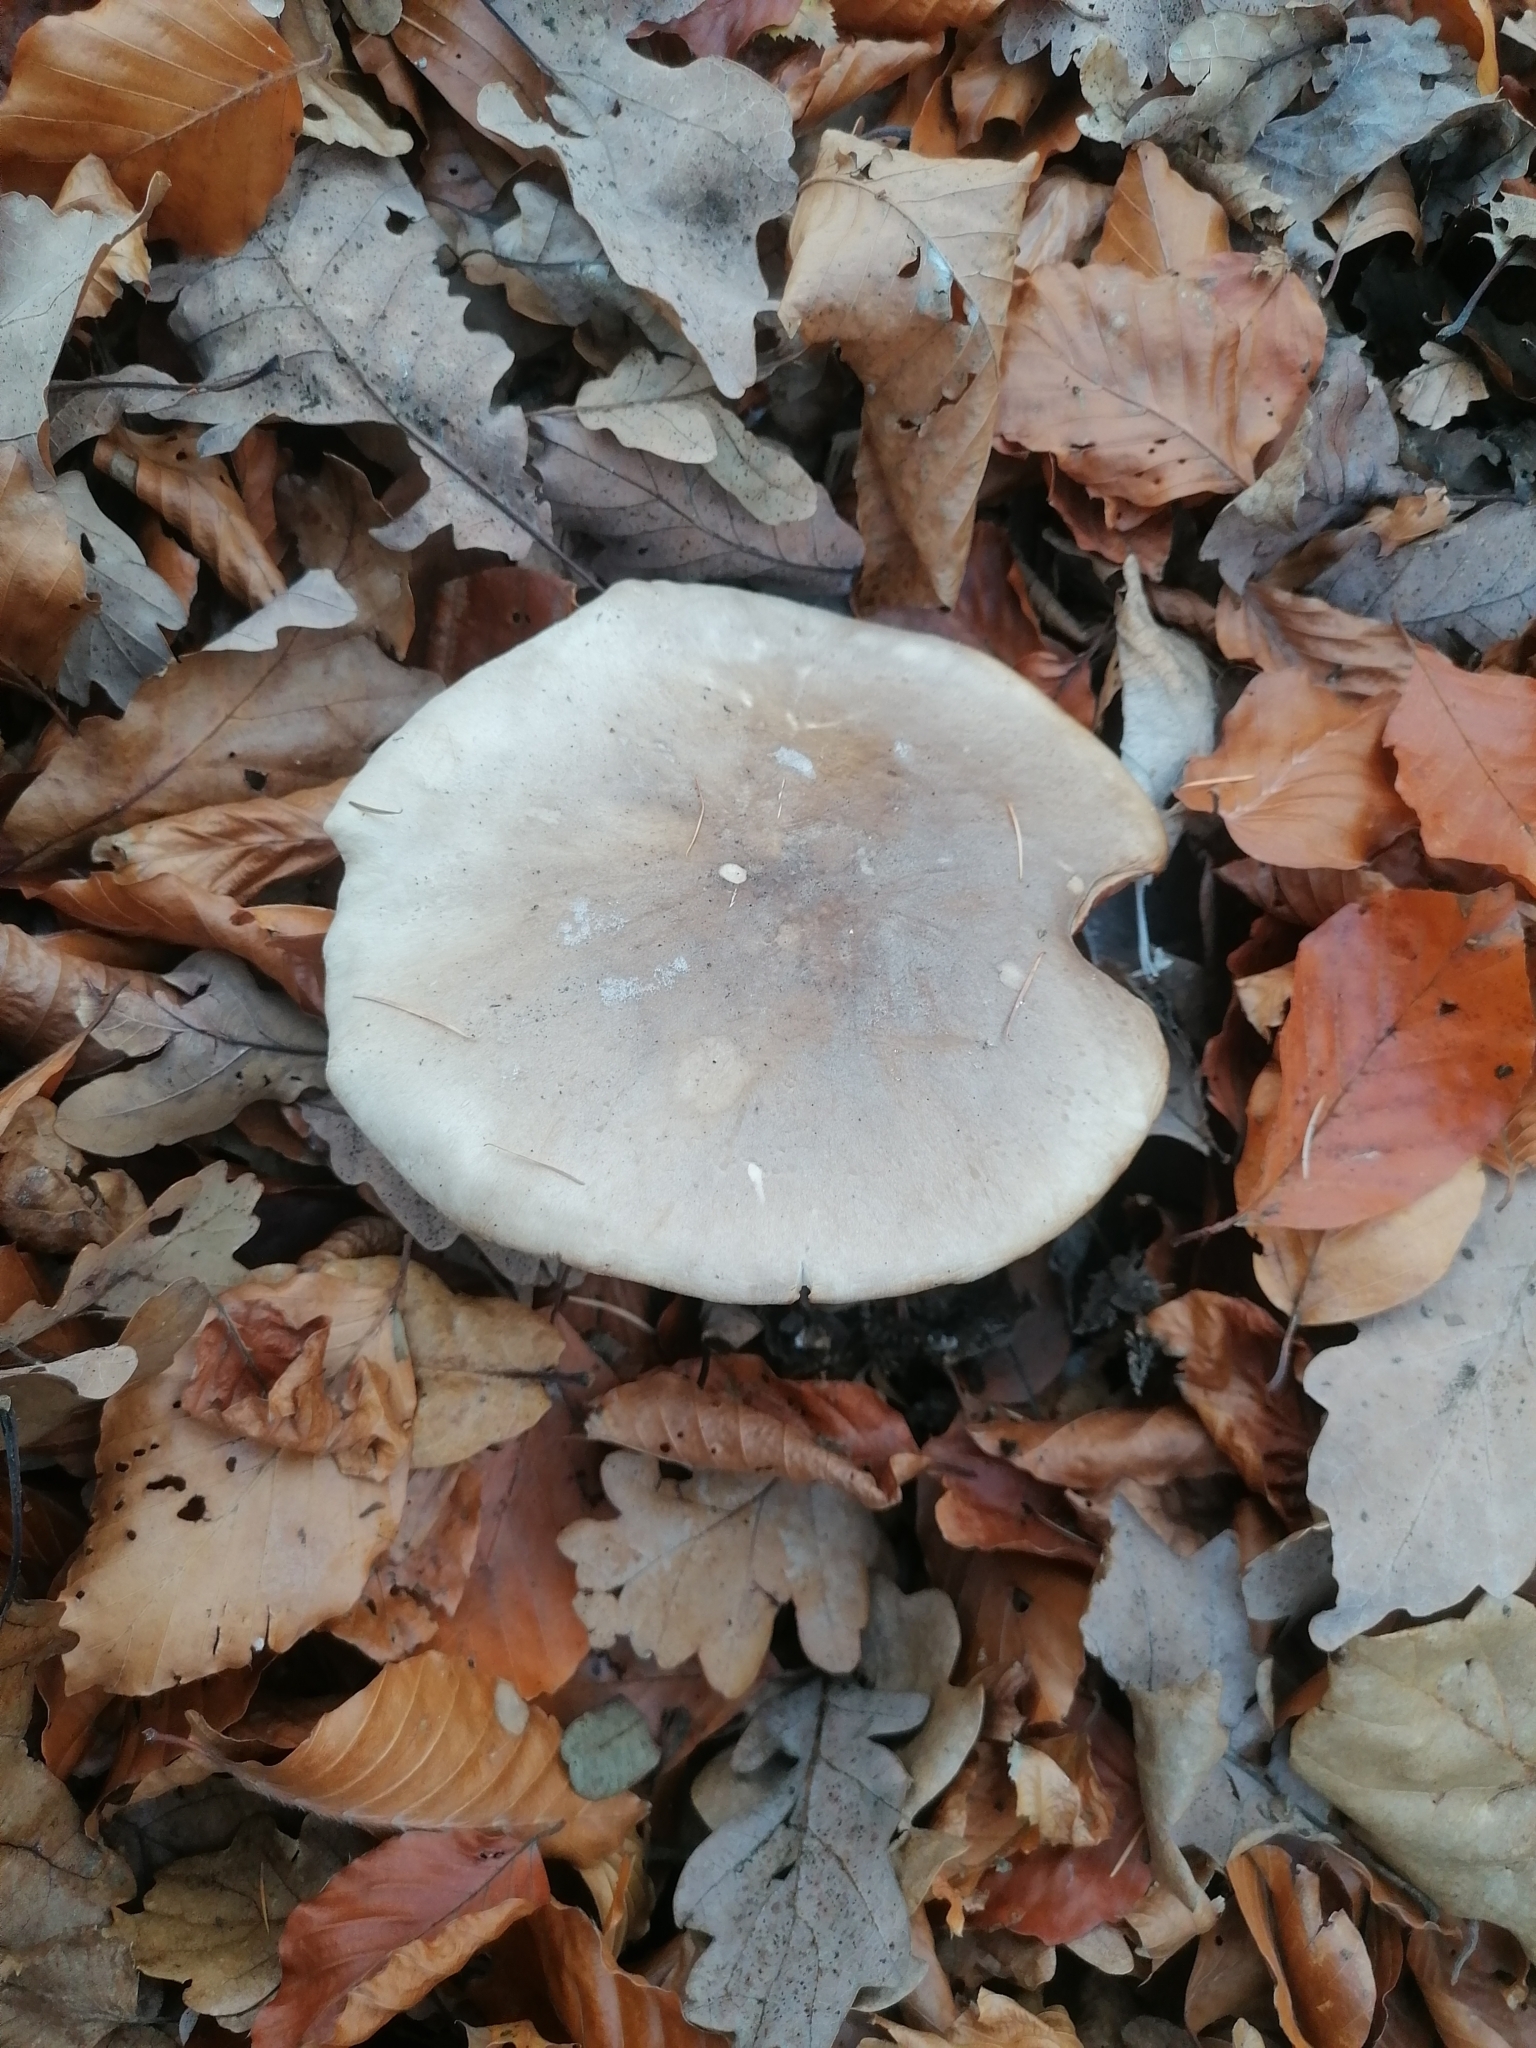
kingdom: Fungi
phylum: Basidiomycota
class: Agaricomycetes
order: Agaricales
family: Tricholomataceae
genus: Clitocybe
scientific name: Clitocybe nebularis
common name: Clouded agaric
